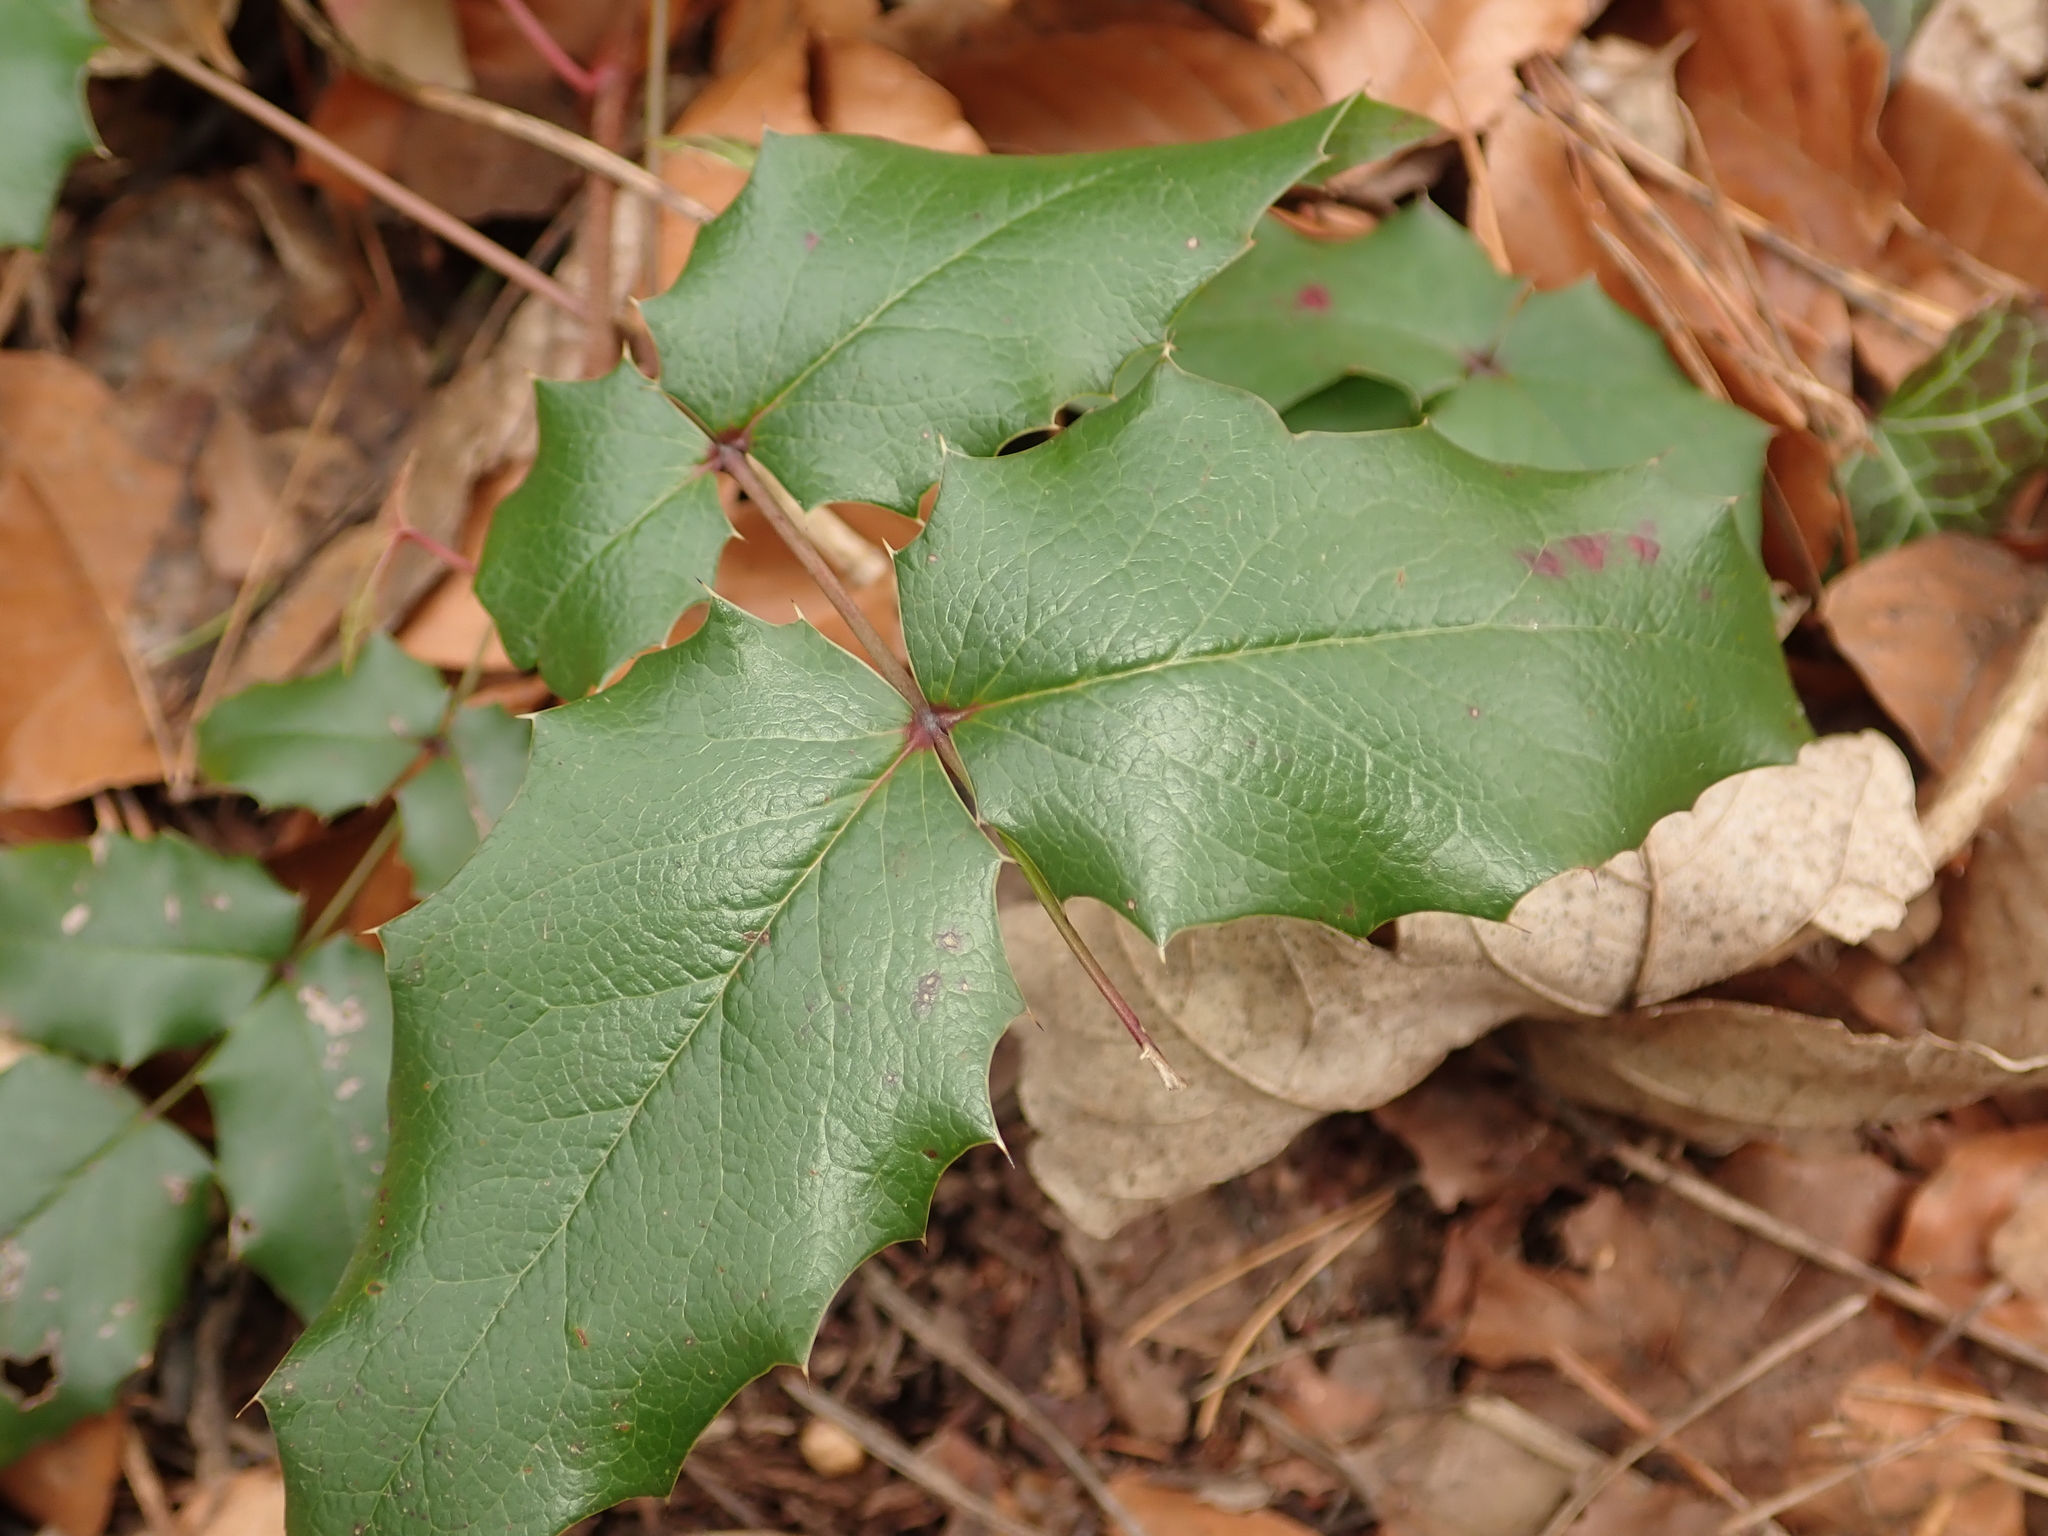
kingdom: Plantae
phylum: Tracheophyta
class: Magnoliopsida
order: Ranunculales
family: Berberidaceae
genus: Mahonia
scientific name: Mahonia aquifolium
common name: Oregon-grape
